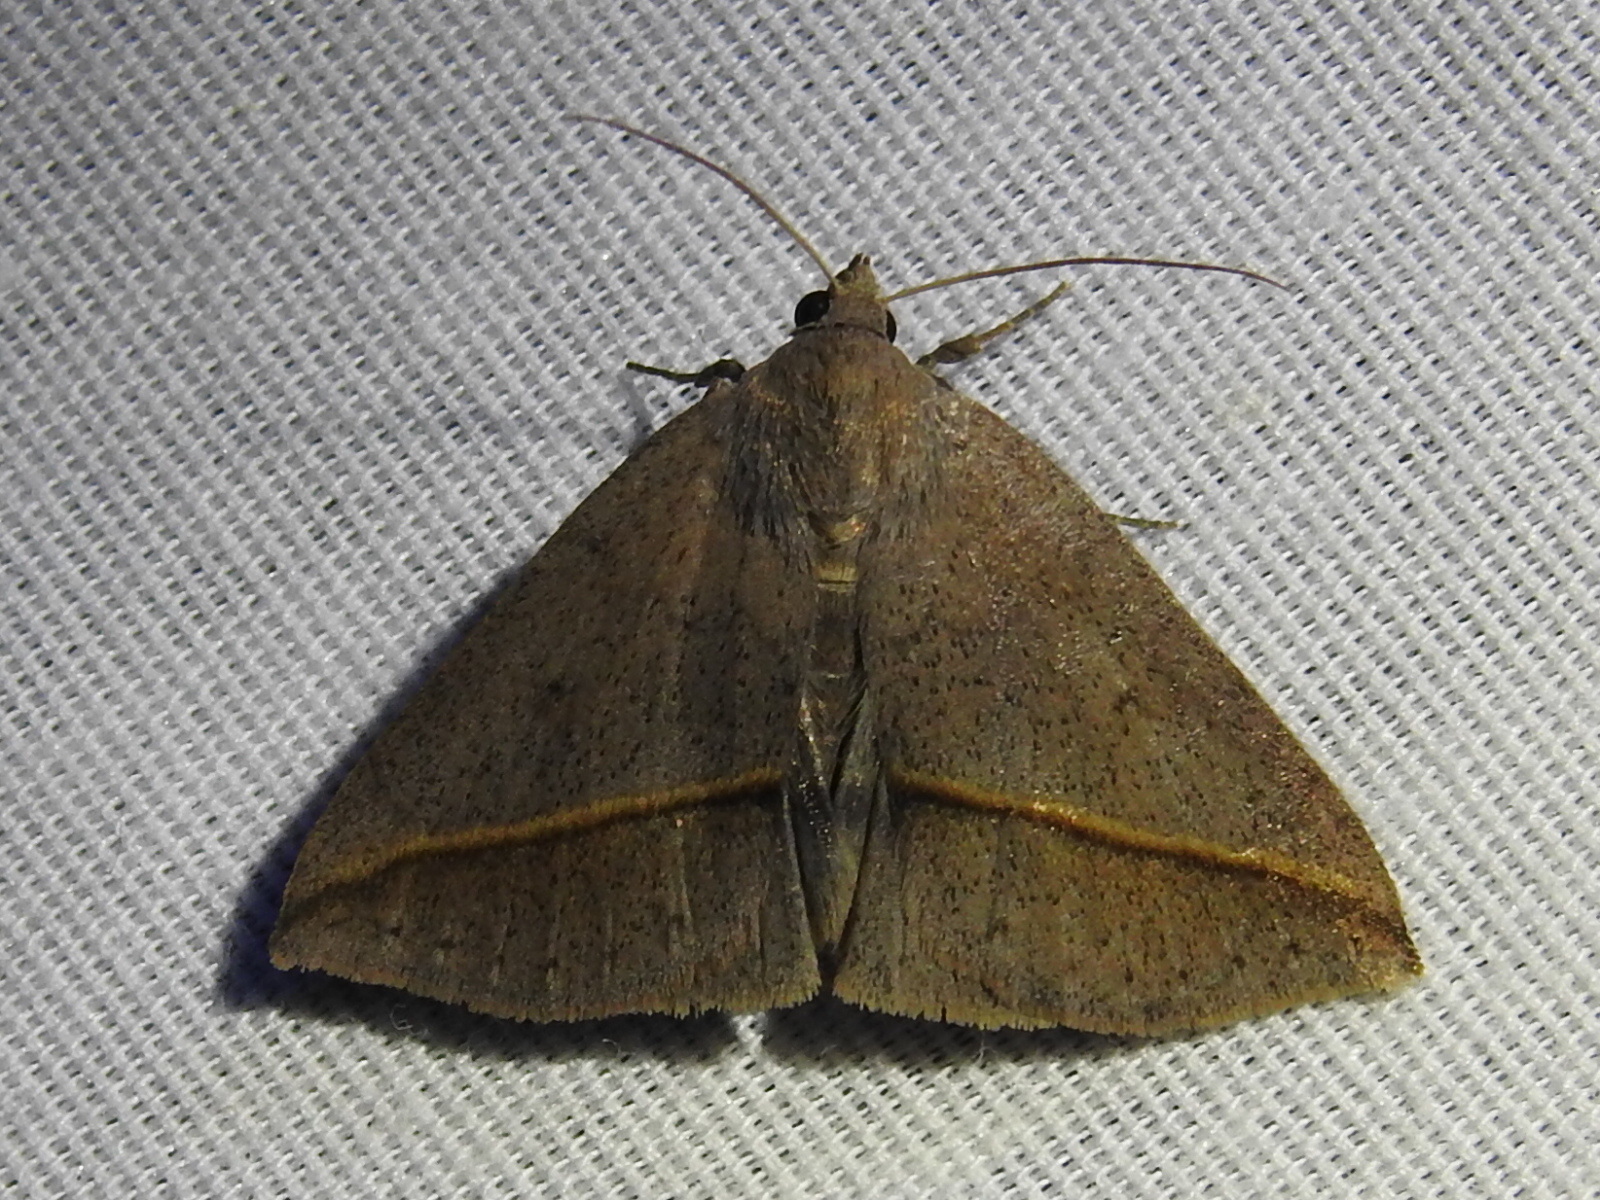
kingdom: Animalia
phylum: Arthropoda
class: Insecta
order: Lepidoptera
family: Erebidae
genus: Argyrostrotis
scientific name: Argyrostrotis flavistriaria
